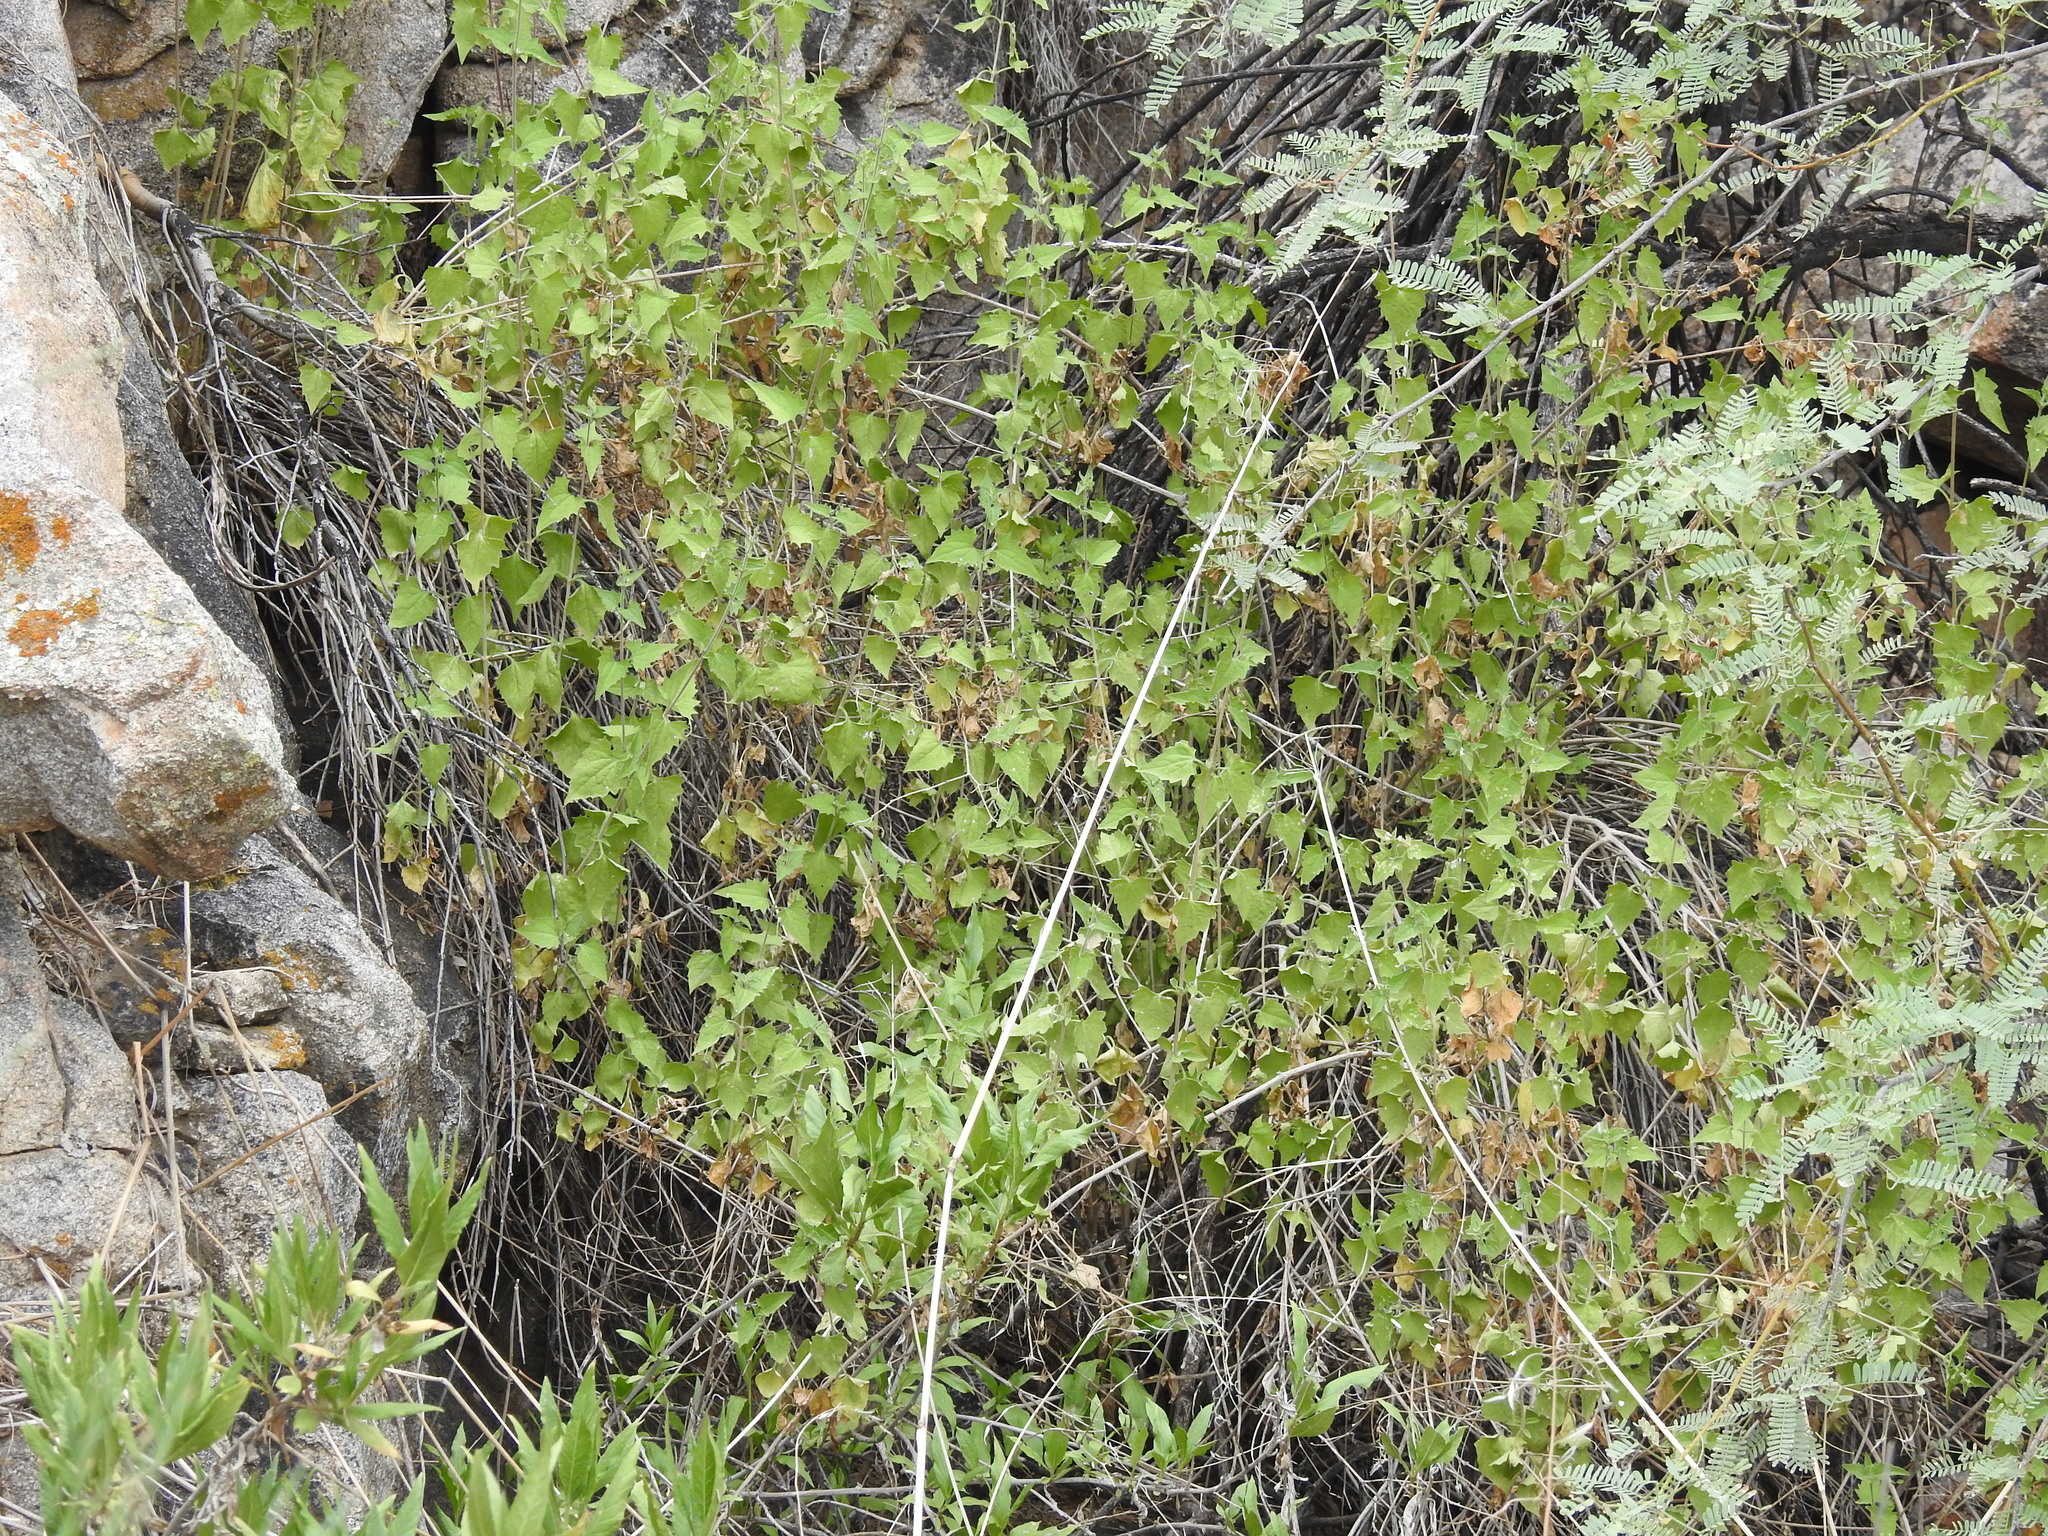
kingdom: Plantae
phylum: Tracheophyta
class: Magnoliopsida
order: Asterales
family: Asteraceae
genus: Brickellia
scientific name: Brickellia coulteri
